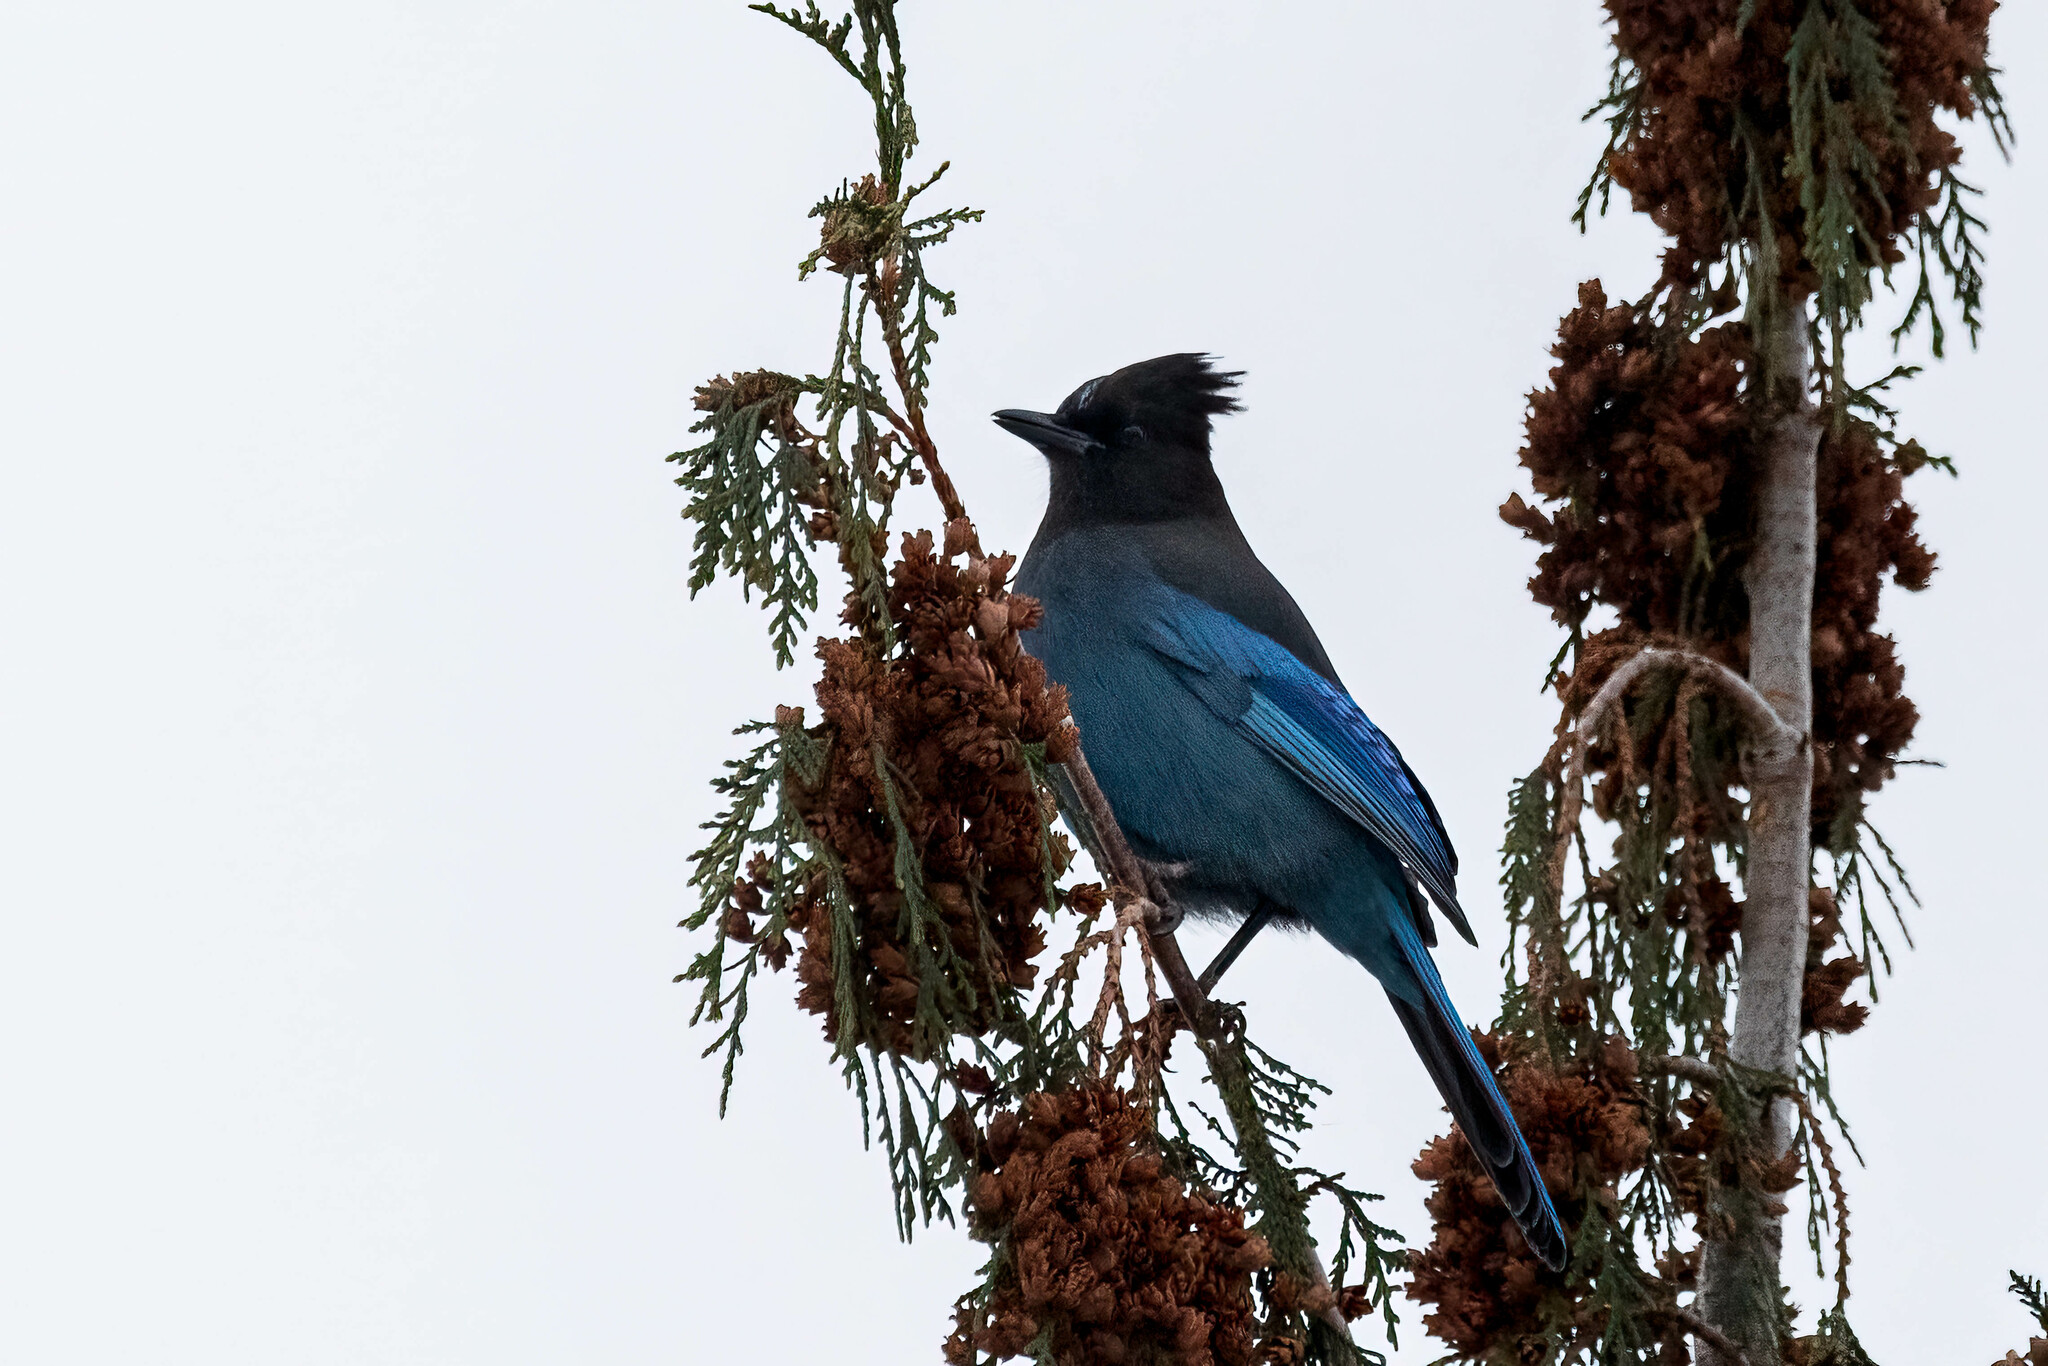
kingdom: Animalia
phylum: Chordata
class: Aves
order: Passeriformes
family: Corvidae
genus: Cyanocitta
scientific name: Cyanocitta stelleri
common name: Steller's jay
